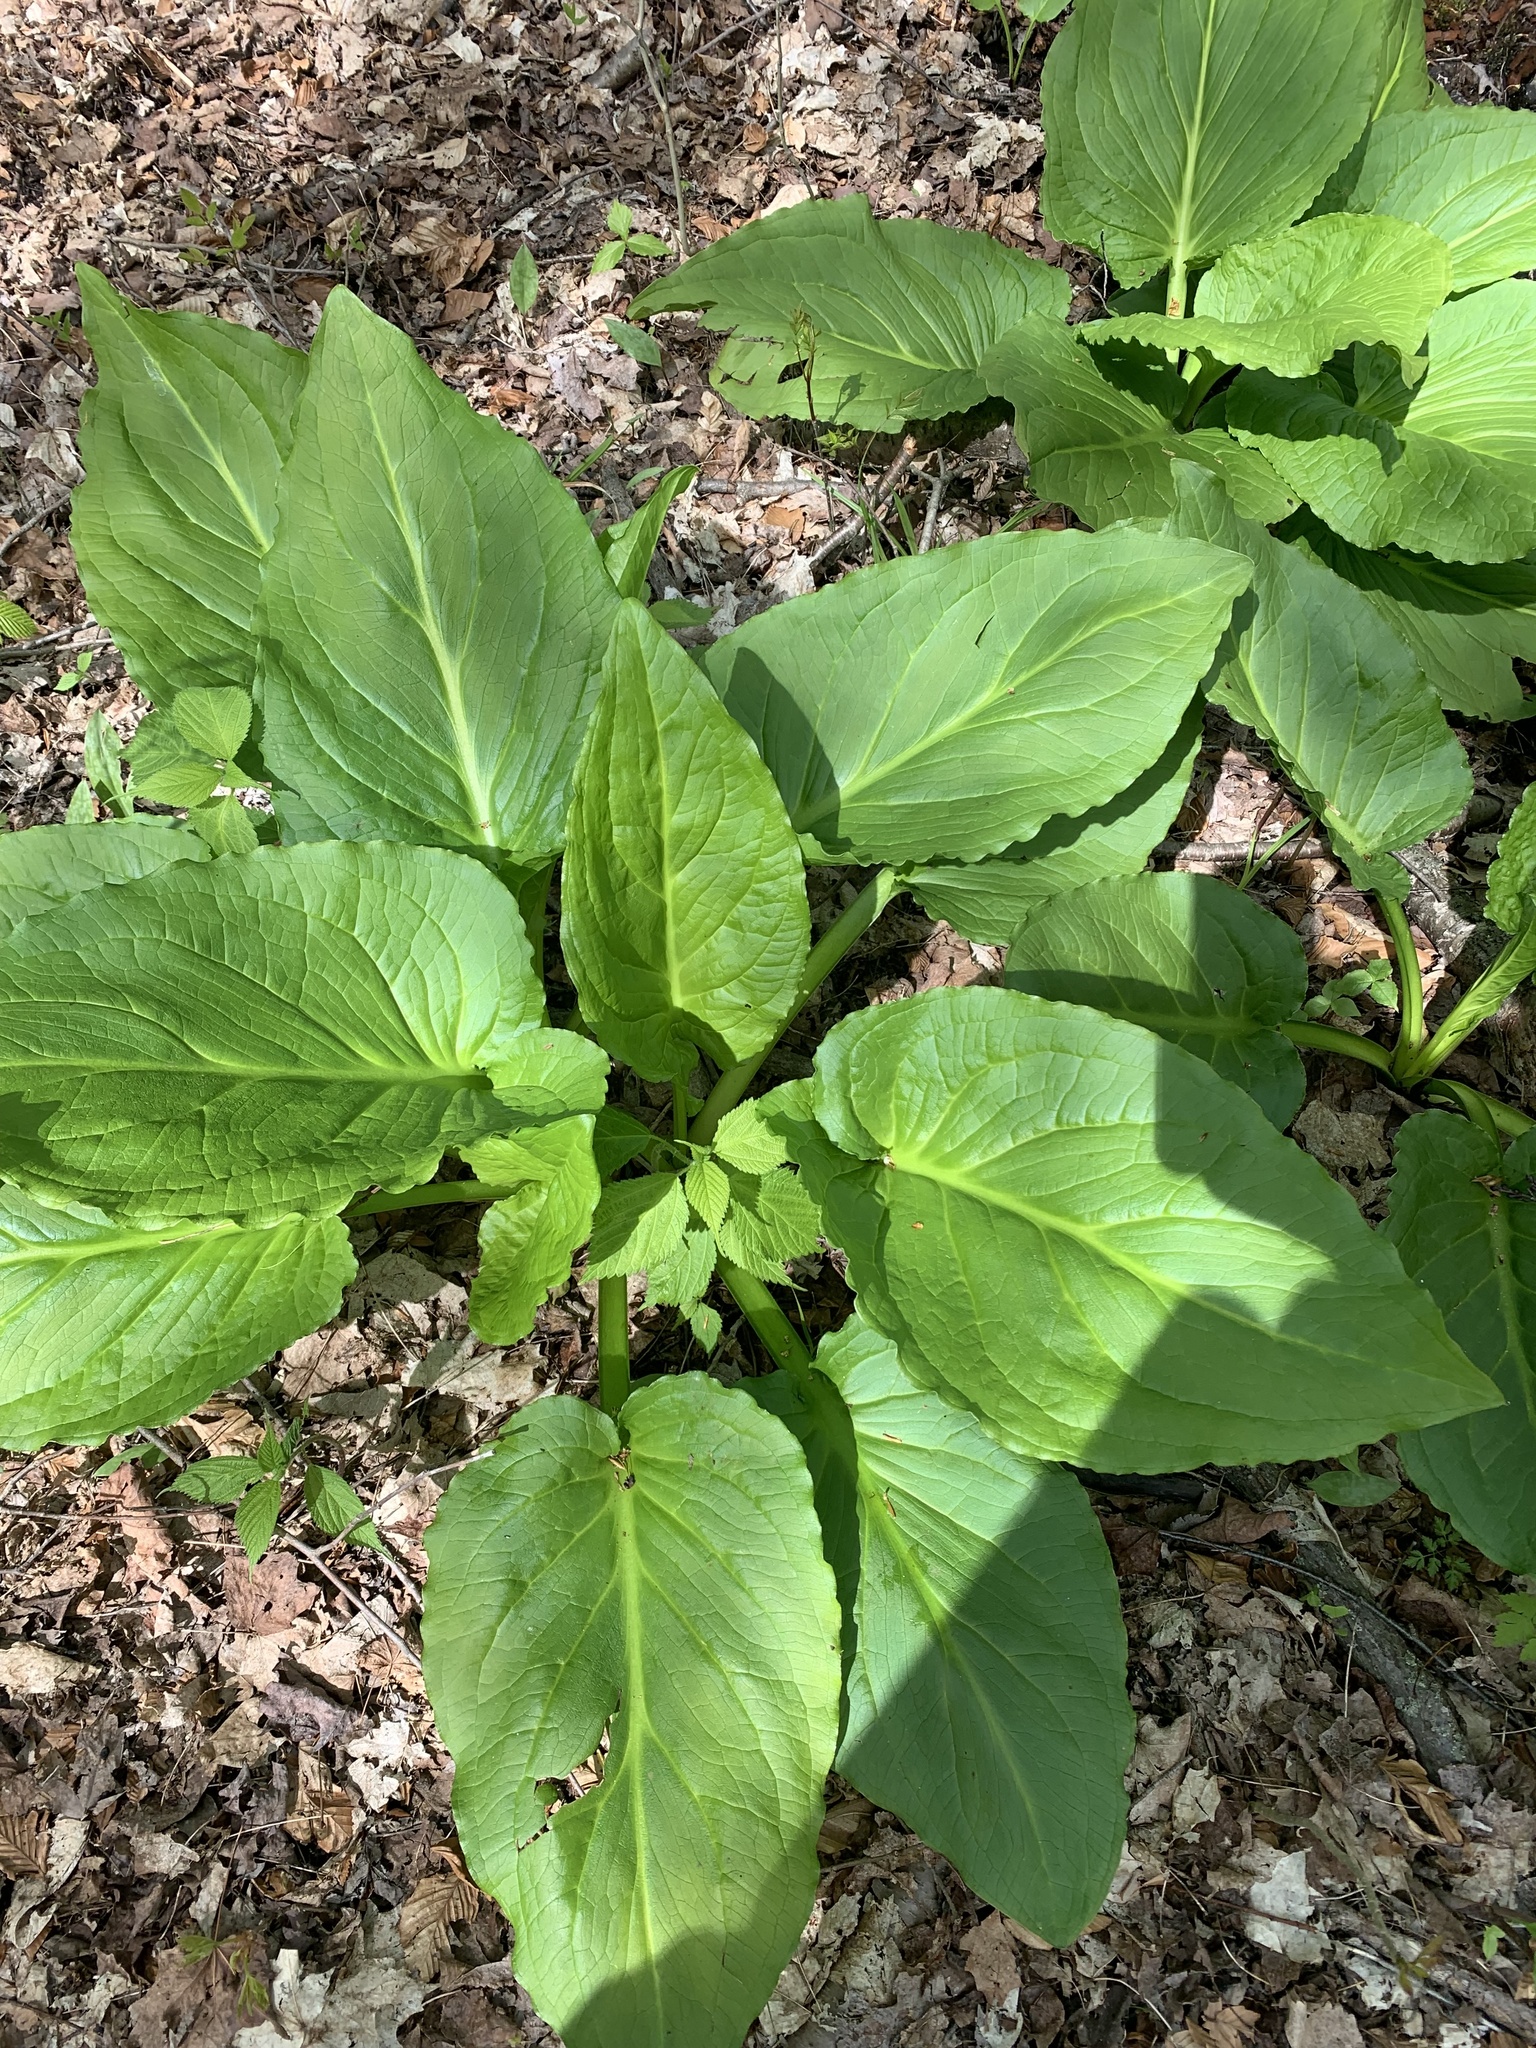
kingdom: Plantae
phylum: Tracheophyta
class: Liliopsida
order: Alismatales
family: Araceae
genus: Symplocarpus
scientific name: Symplocarpus foetidus
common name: Eastern skunk cabbage
